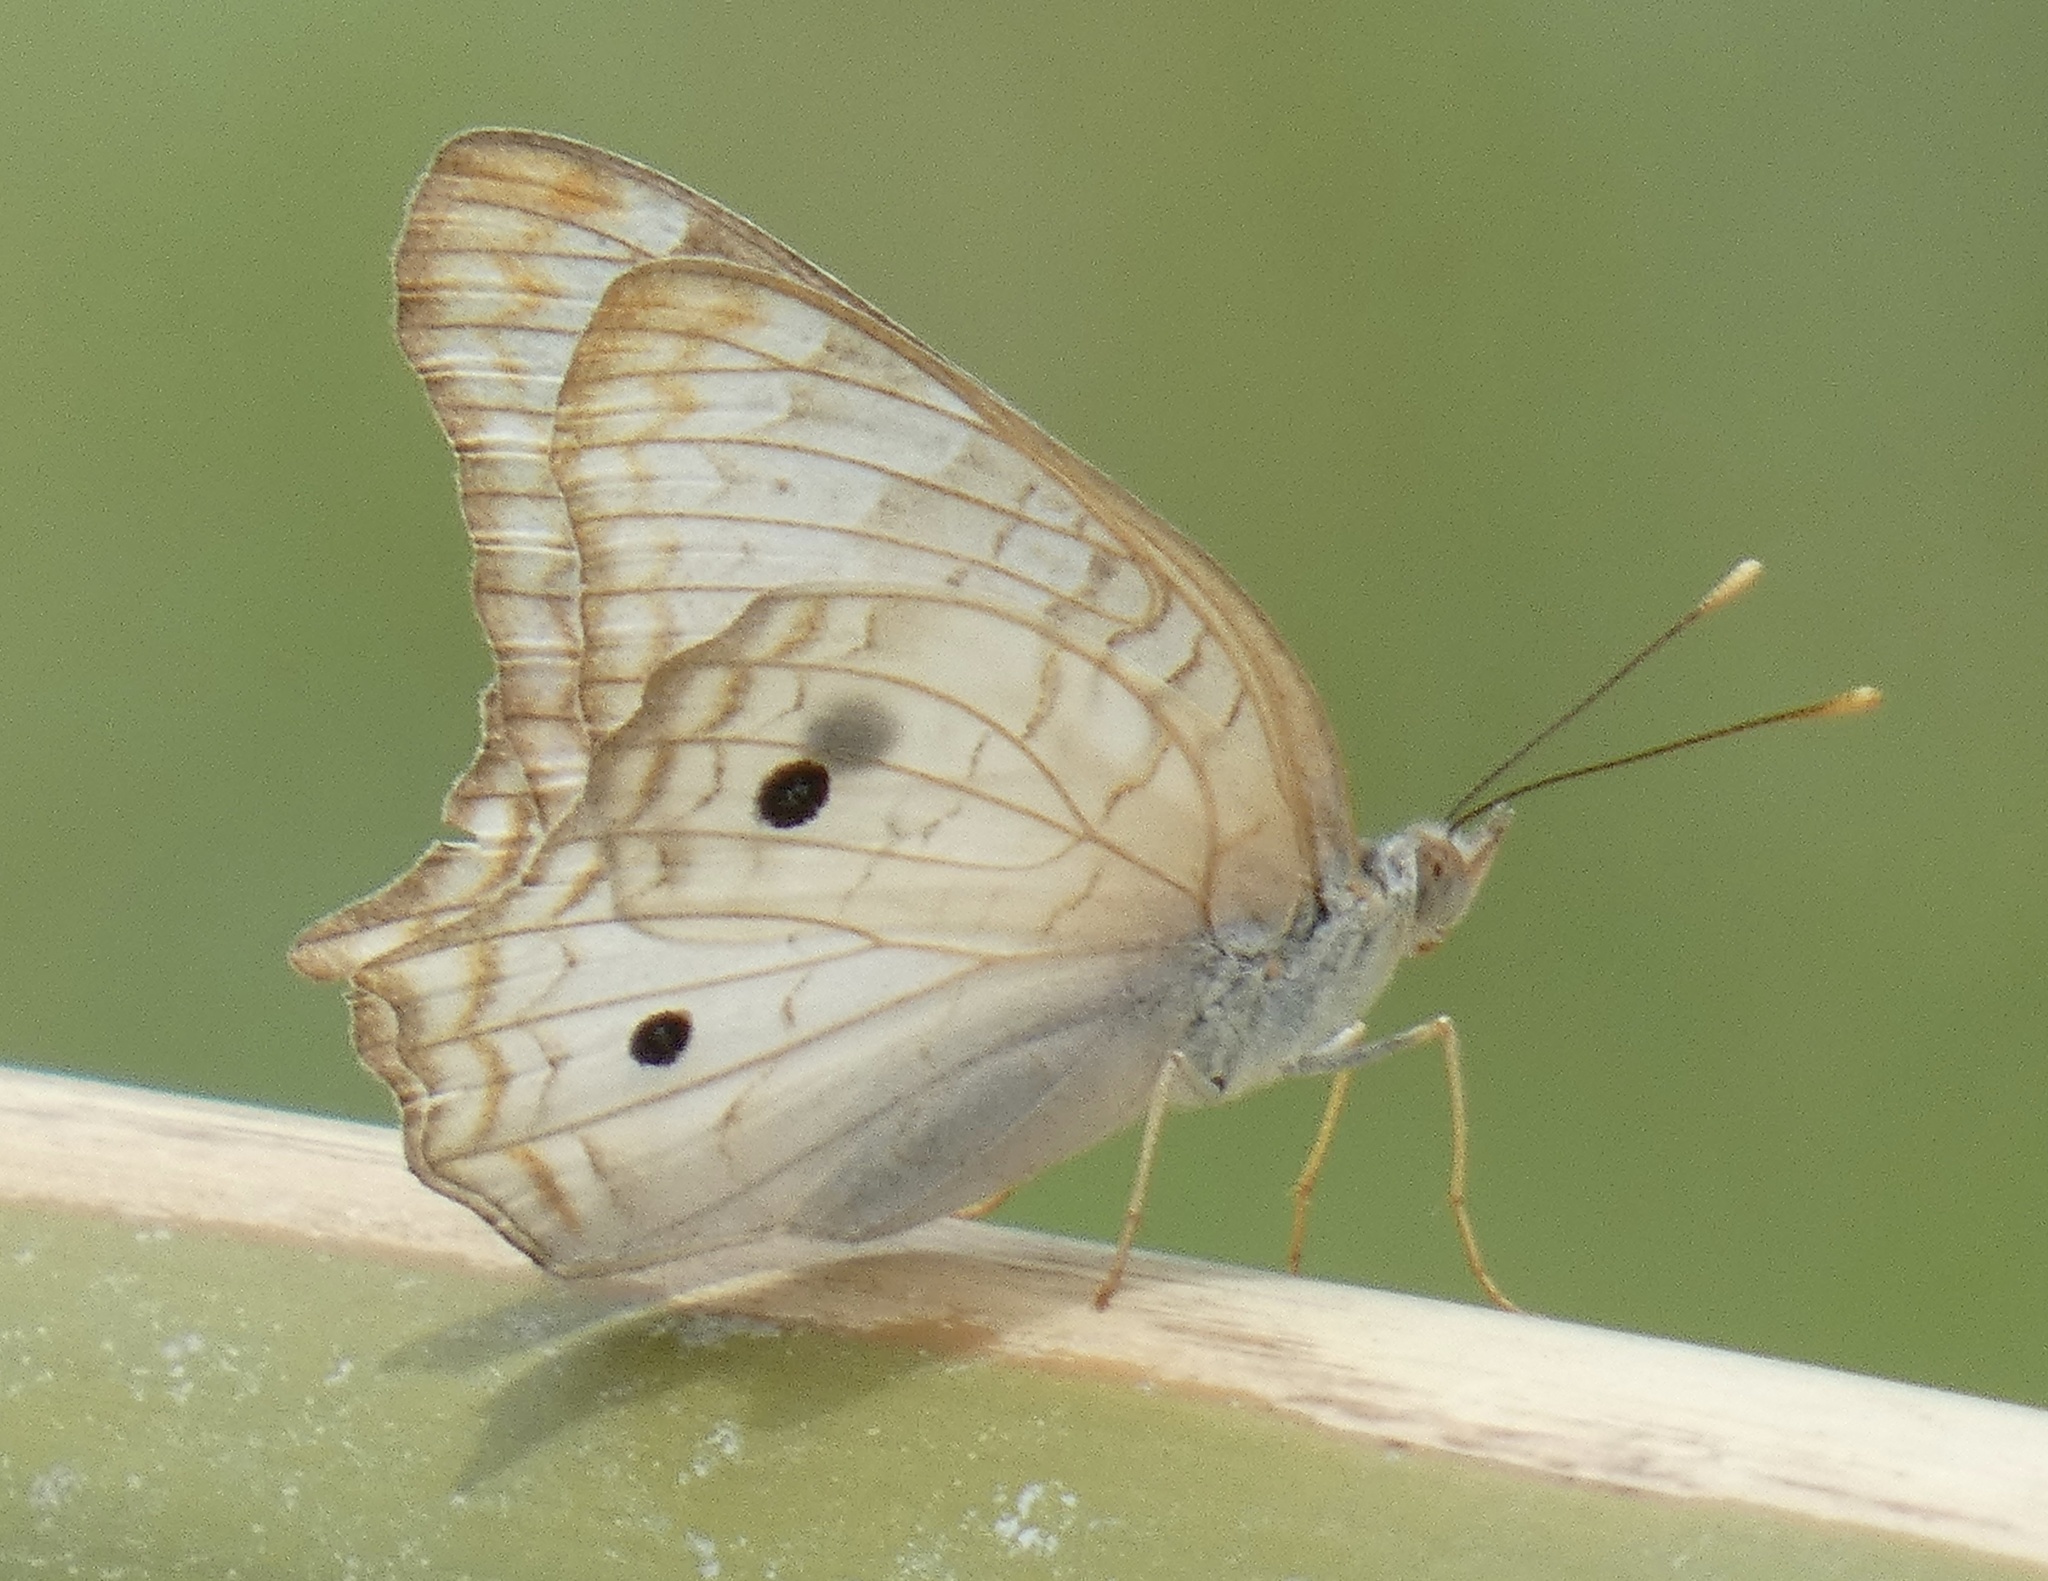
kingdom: Animalia
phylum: Arthropoda
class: Insecta
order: Lepidoptera
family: Nymphalidae
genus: Anartia
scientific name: Anartia jatrophae
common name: White peacock
